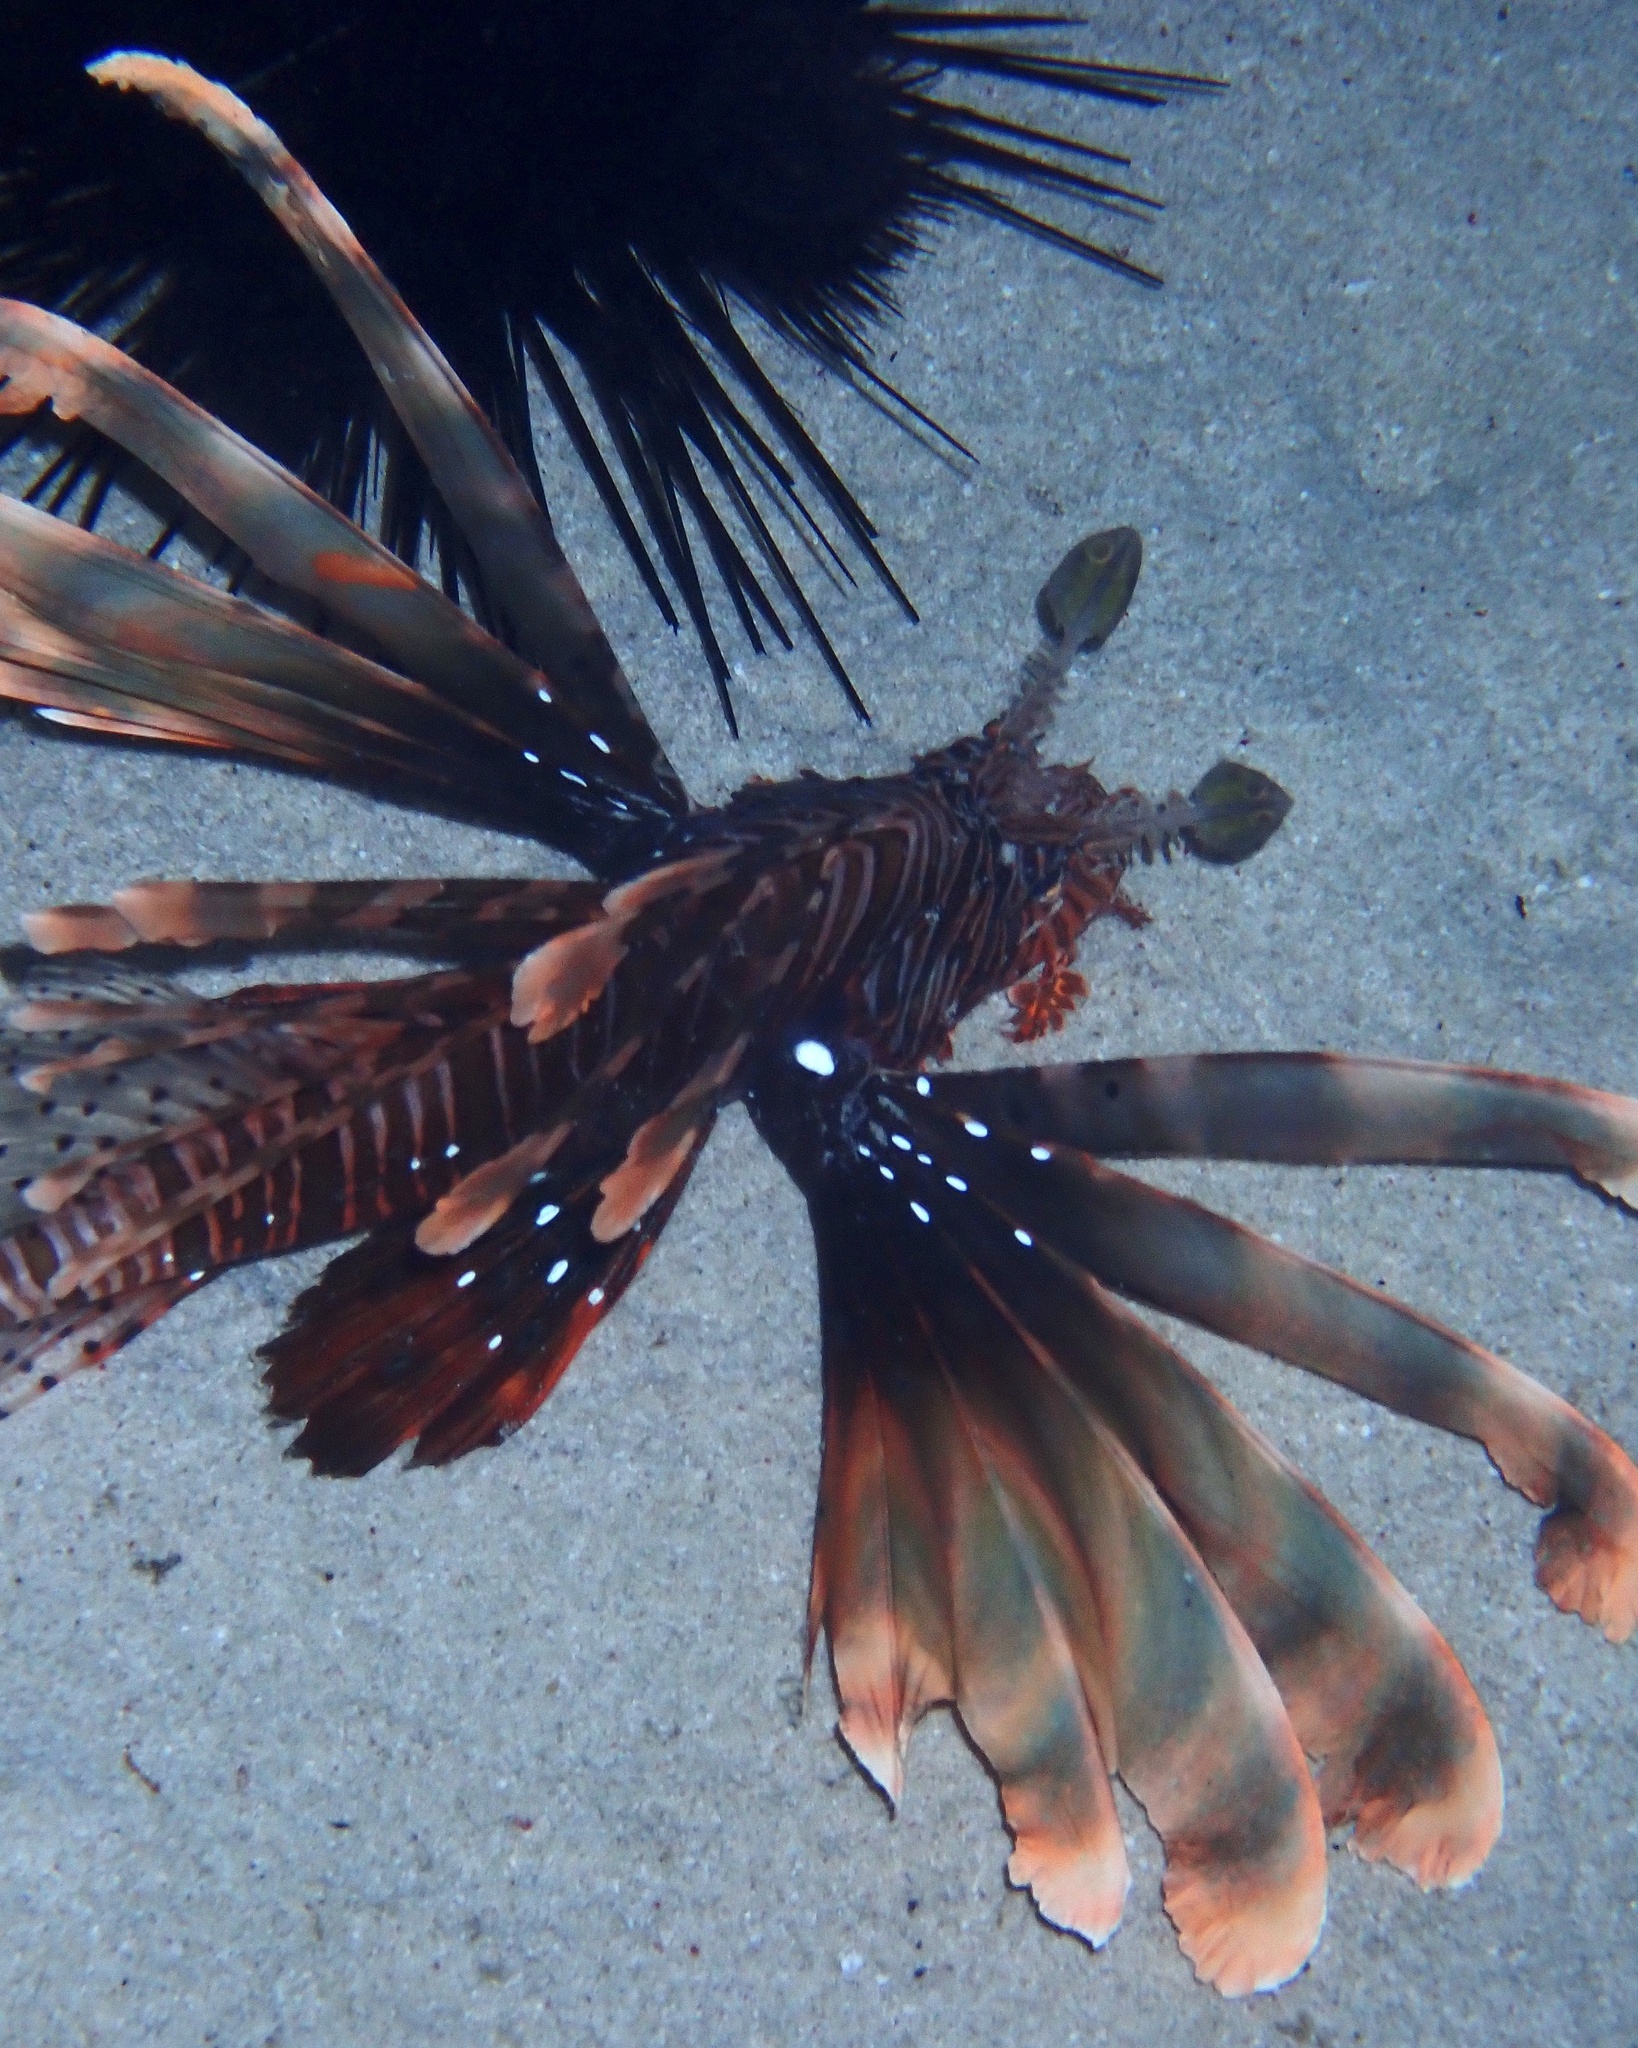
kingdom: Animalia
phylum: Chordata
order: Scorpaeniformes
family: Scorpaenidae
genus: Pterois
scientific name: Pterois miles
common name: Devil firefish
